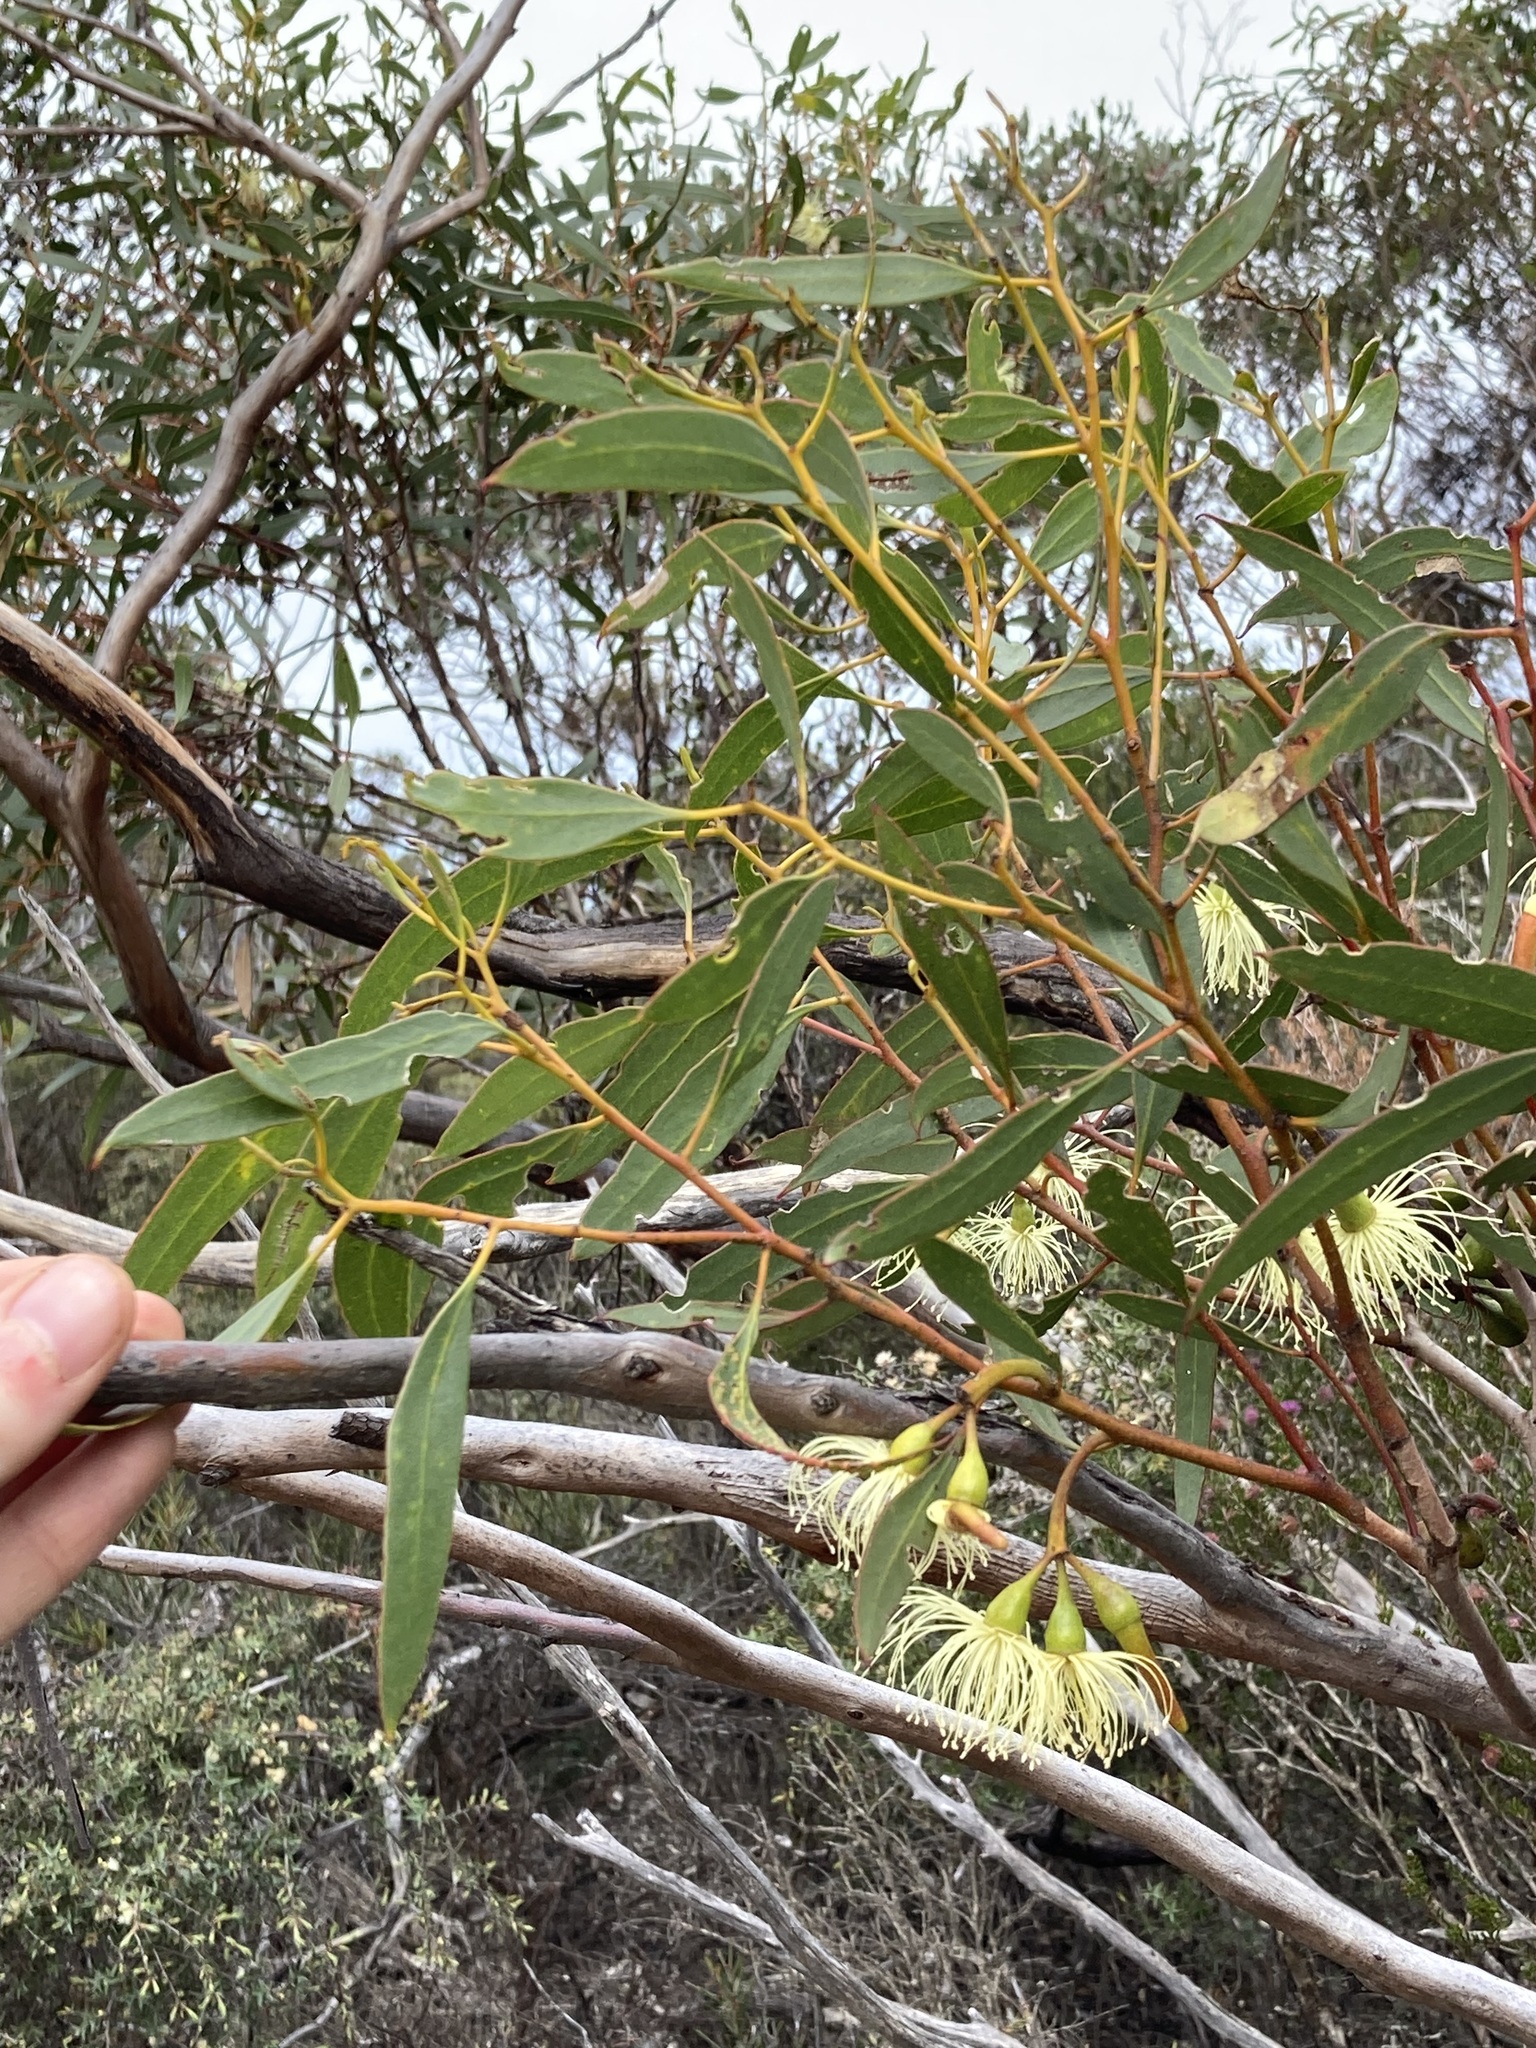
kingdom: Plantae
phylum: Tracheophyta
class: Magnoliopsida
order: Myrtales
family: Myrtaceae
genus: Eucalyptus
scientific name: Eucalyptus tenera
